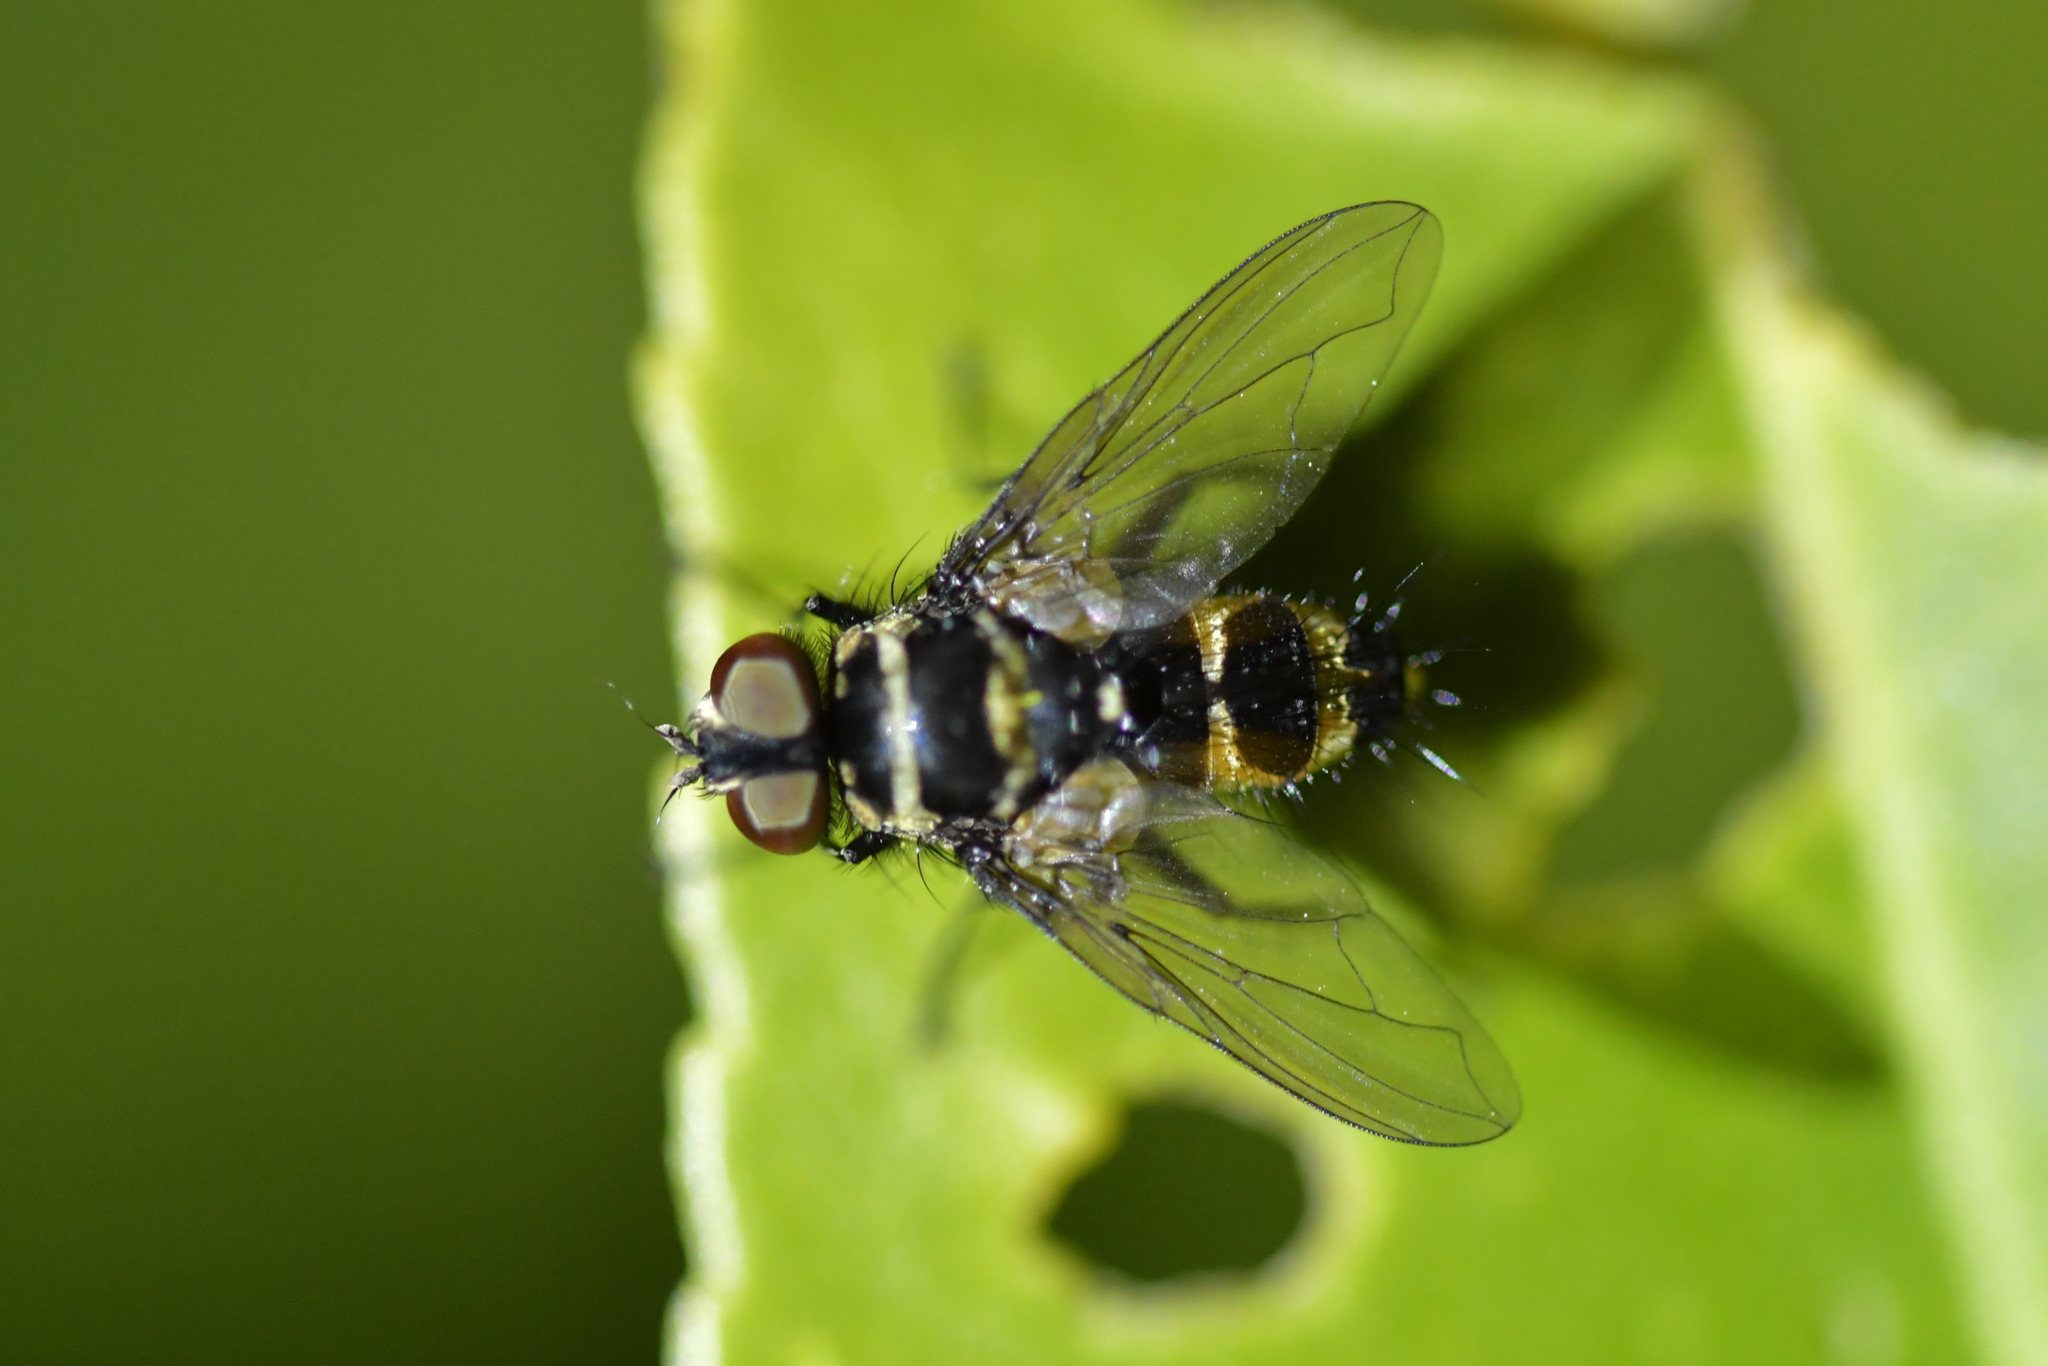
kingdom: Animalia
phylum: Arthropoda
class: Insecta
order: Diptera
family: Tachinidae
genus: Trigonospila
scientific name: Trigonospila brevifacies
